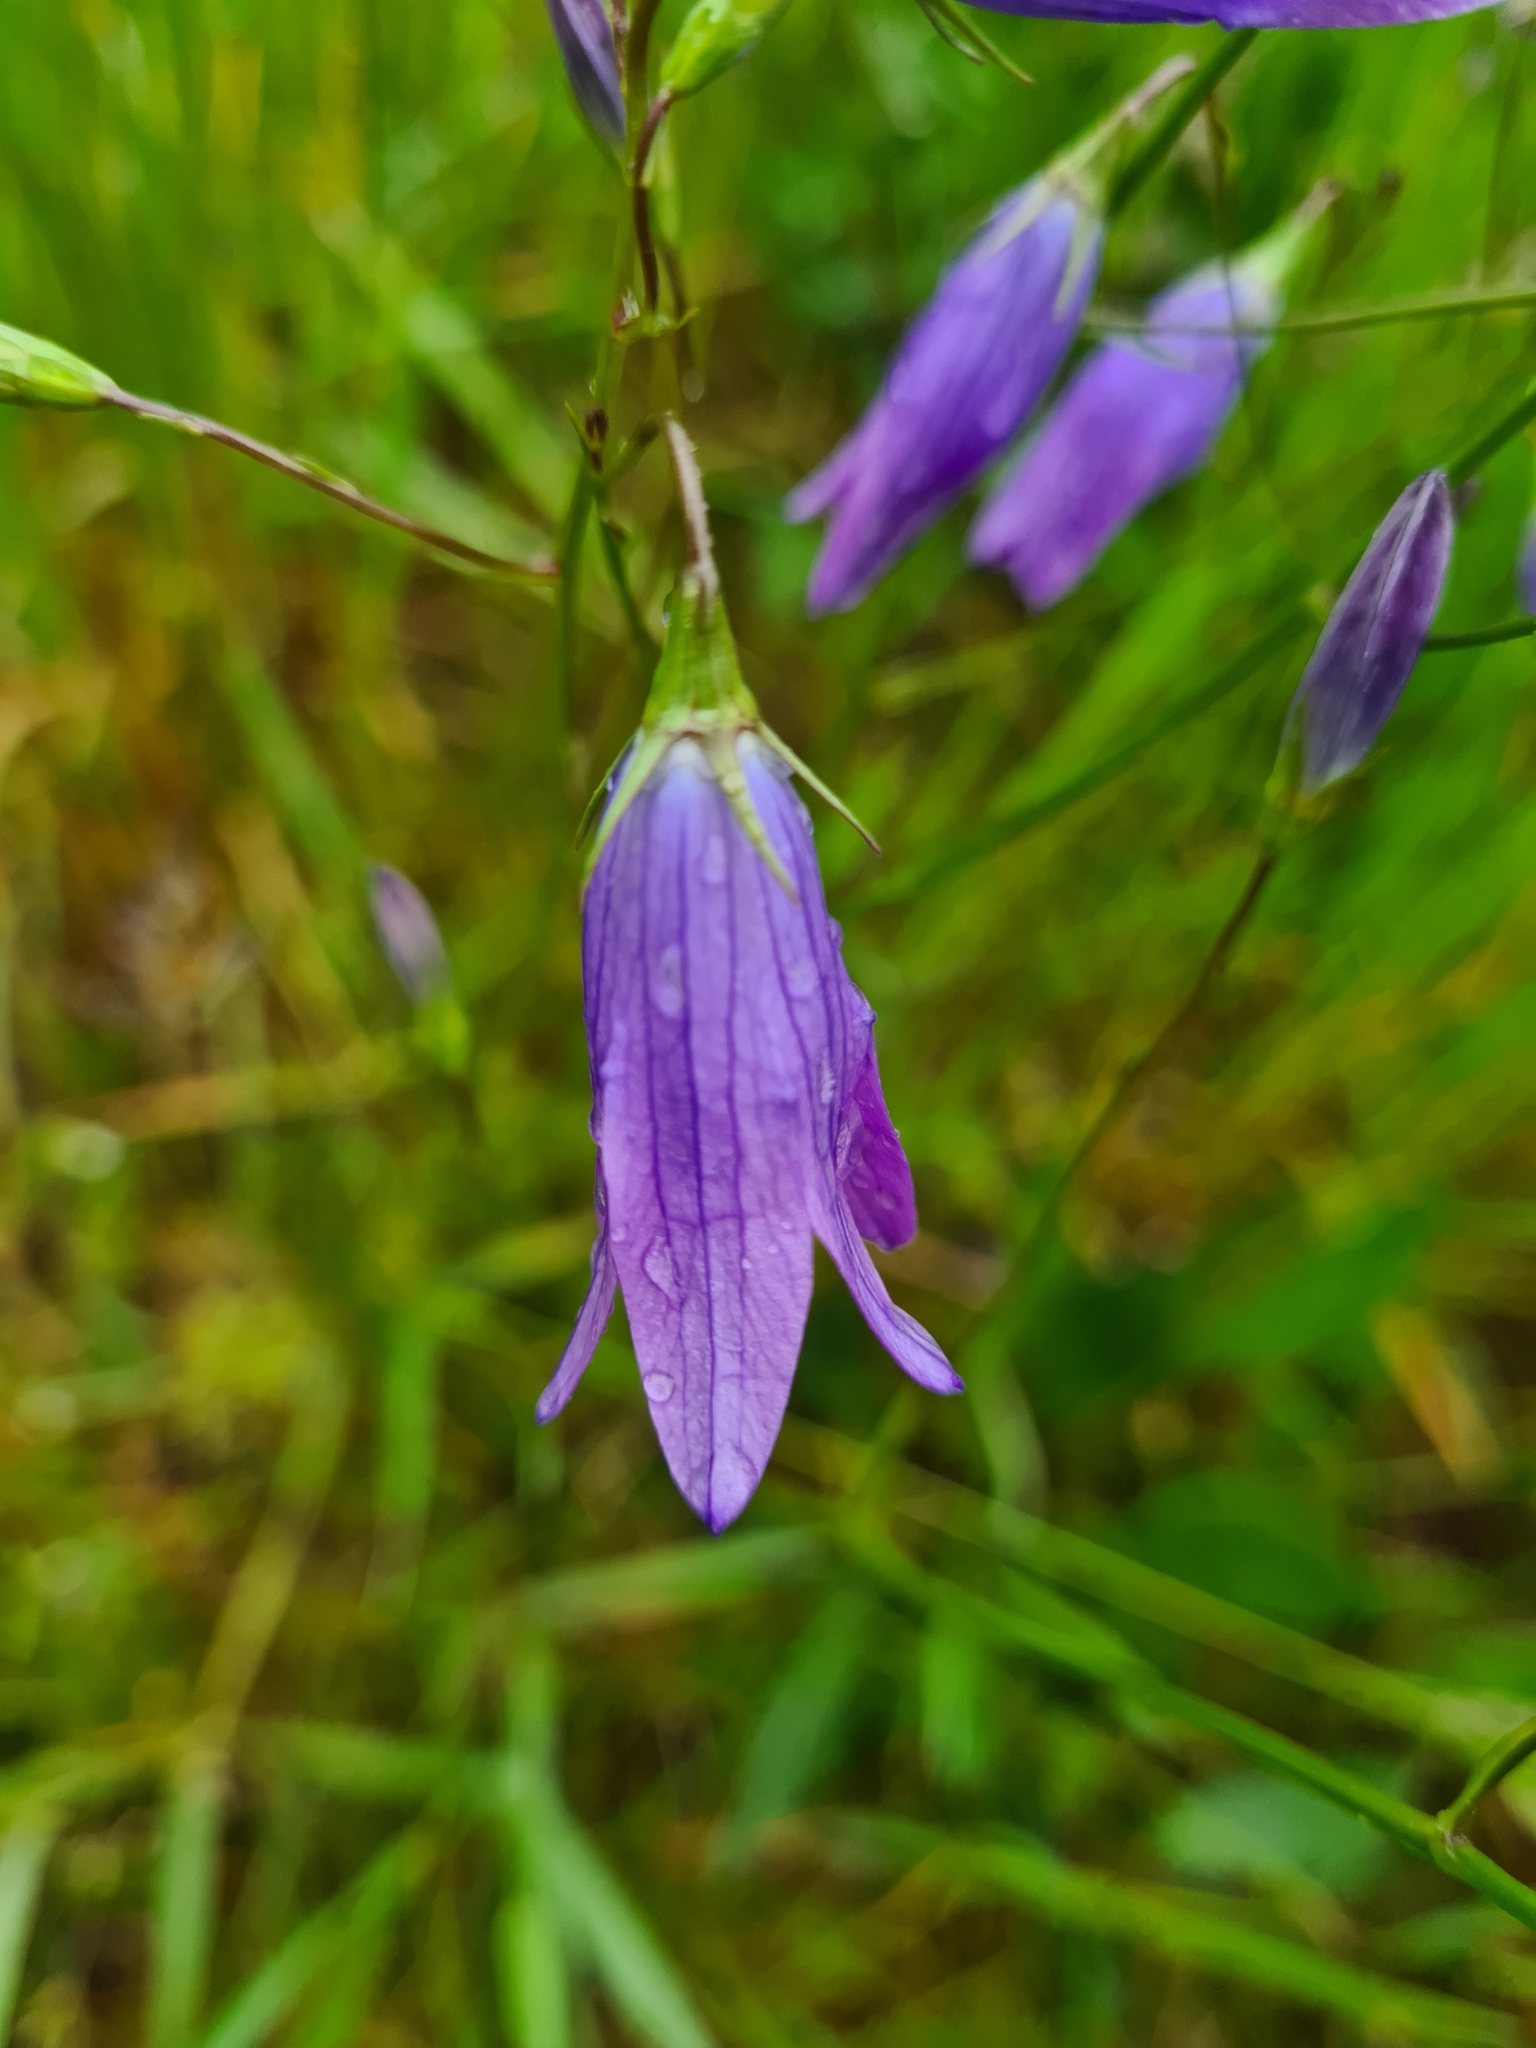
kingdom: Plantae
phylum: Tracheophyta
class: Magnoliopsida
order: Asterales
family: Campanulaceae
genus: Campanula
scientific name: Campanula patula
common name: Spreading bellflower
